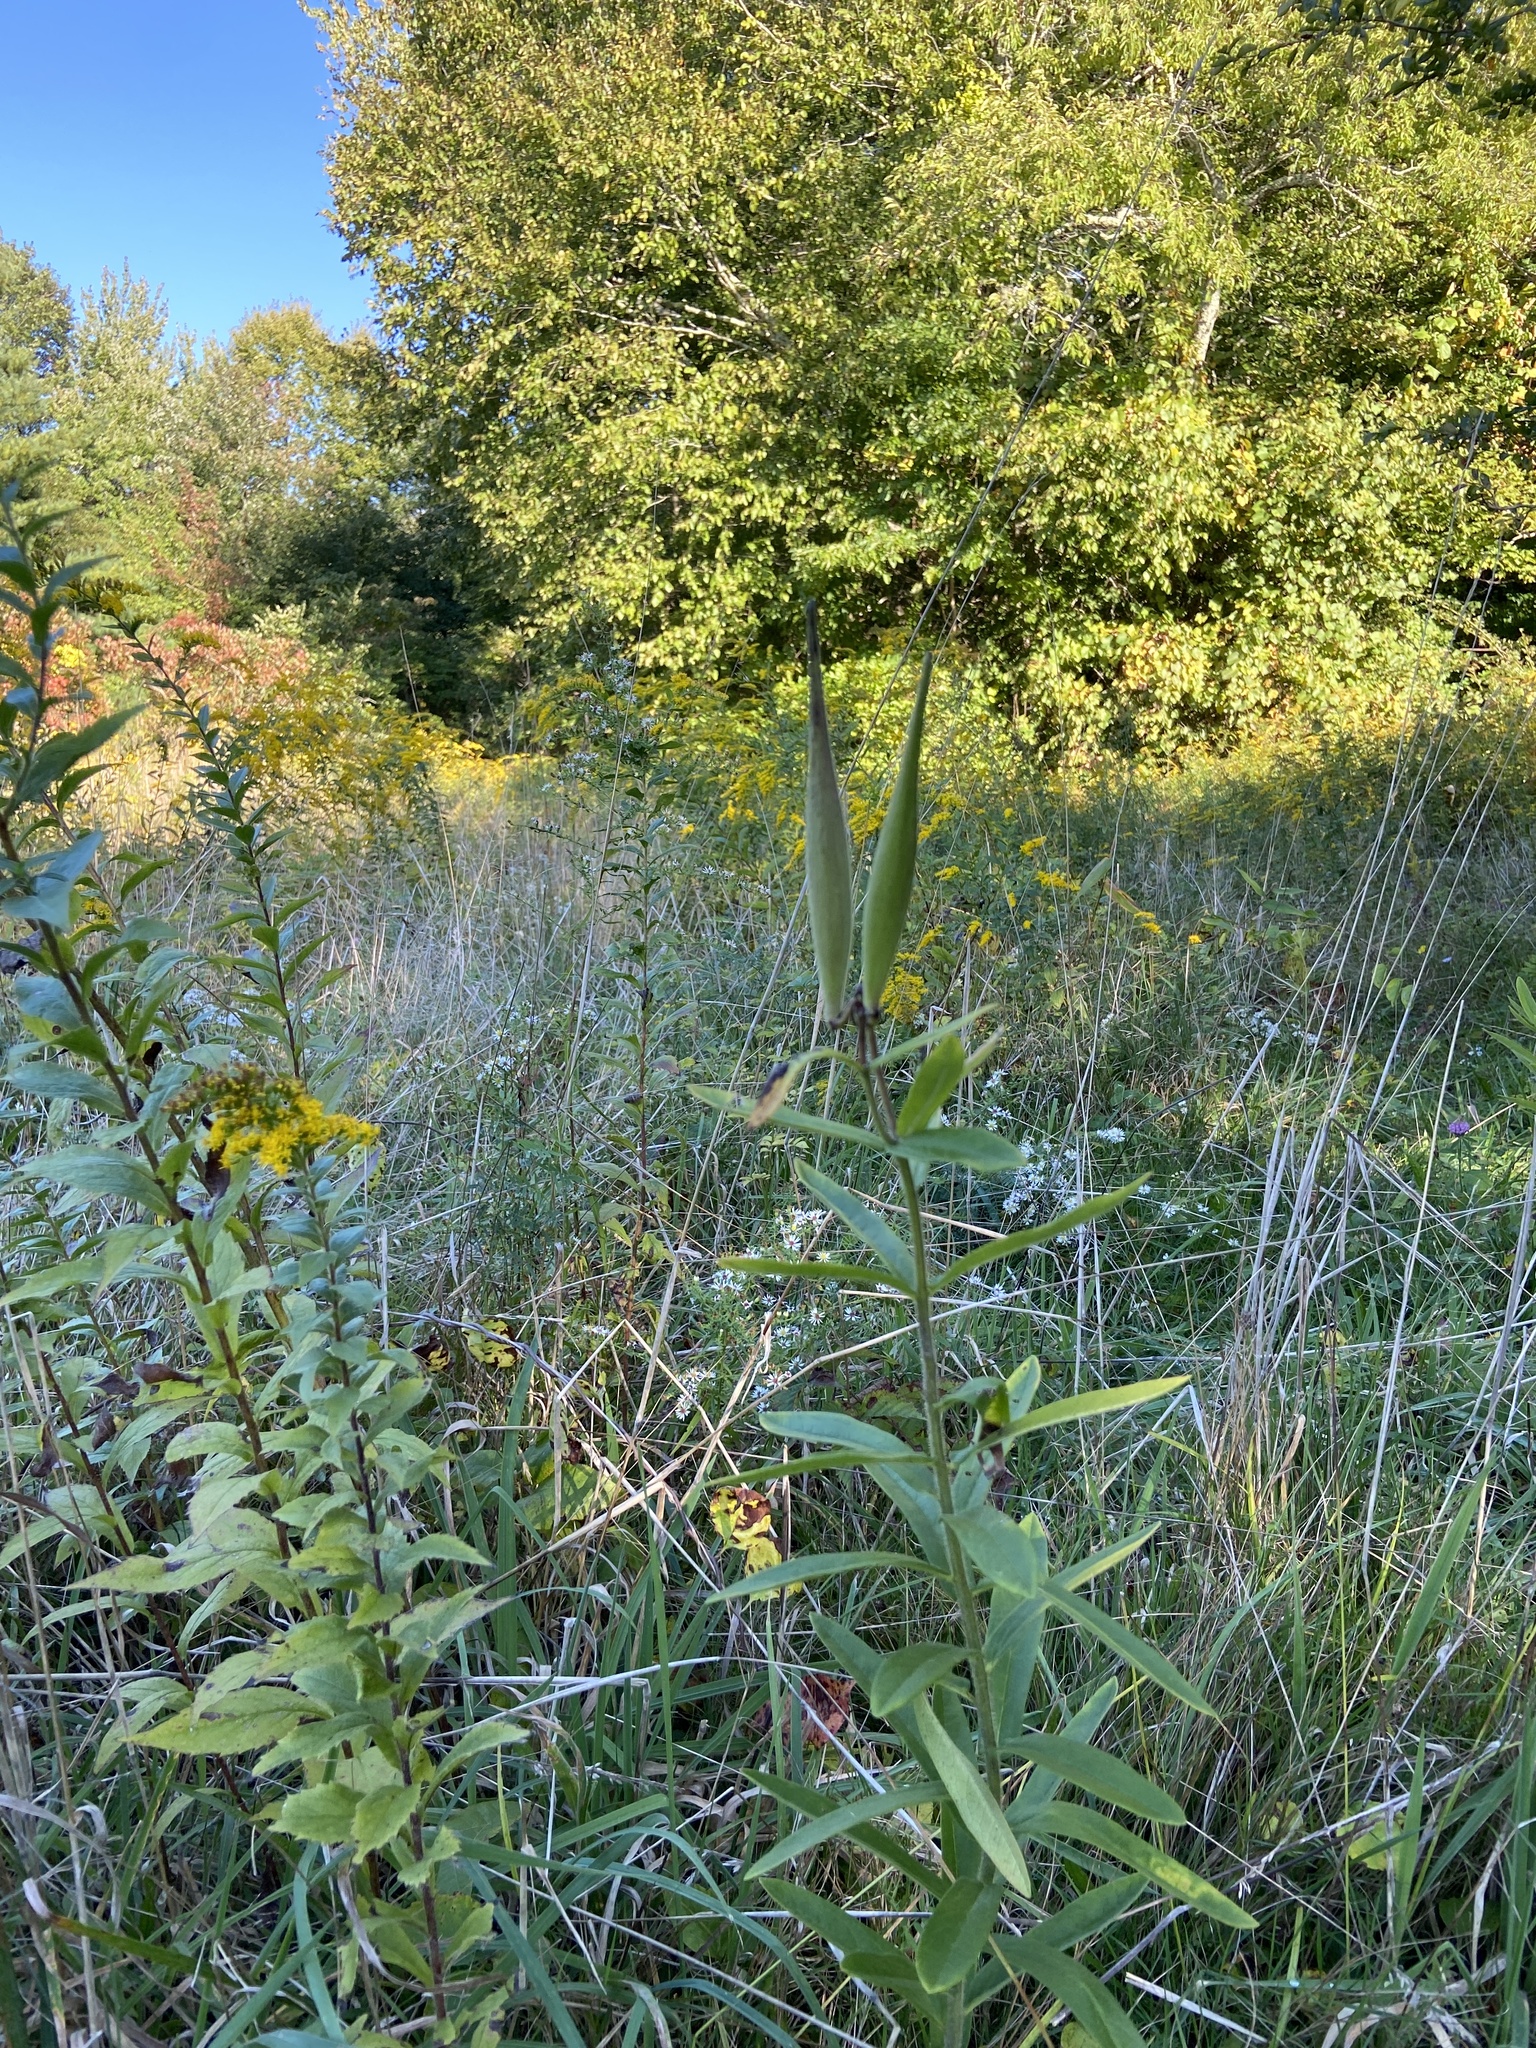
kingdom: Plantae
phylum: Tracheophyta
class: Magnoliopsida
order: Gentianales
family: Apocynaceae
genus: Asclepias
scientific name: Asclepias tuberosa
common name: Butterfly milkweed
